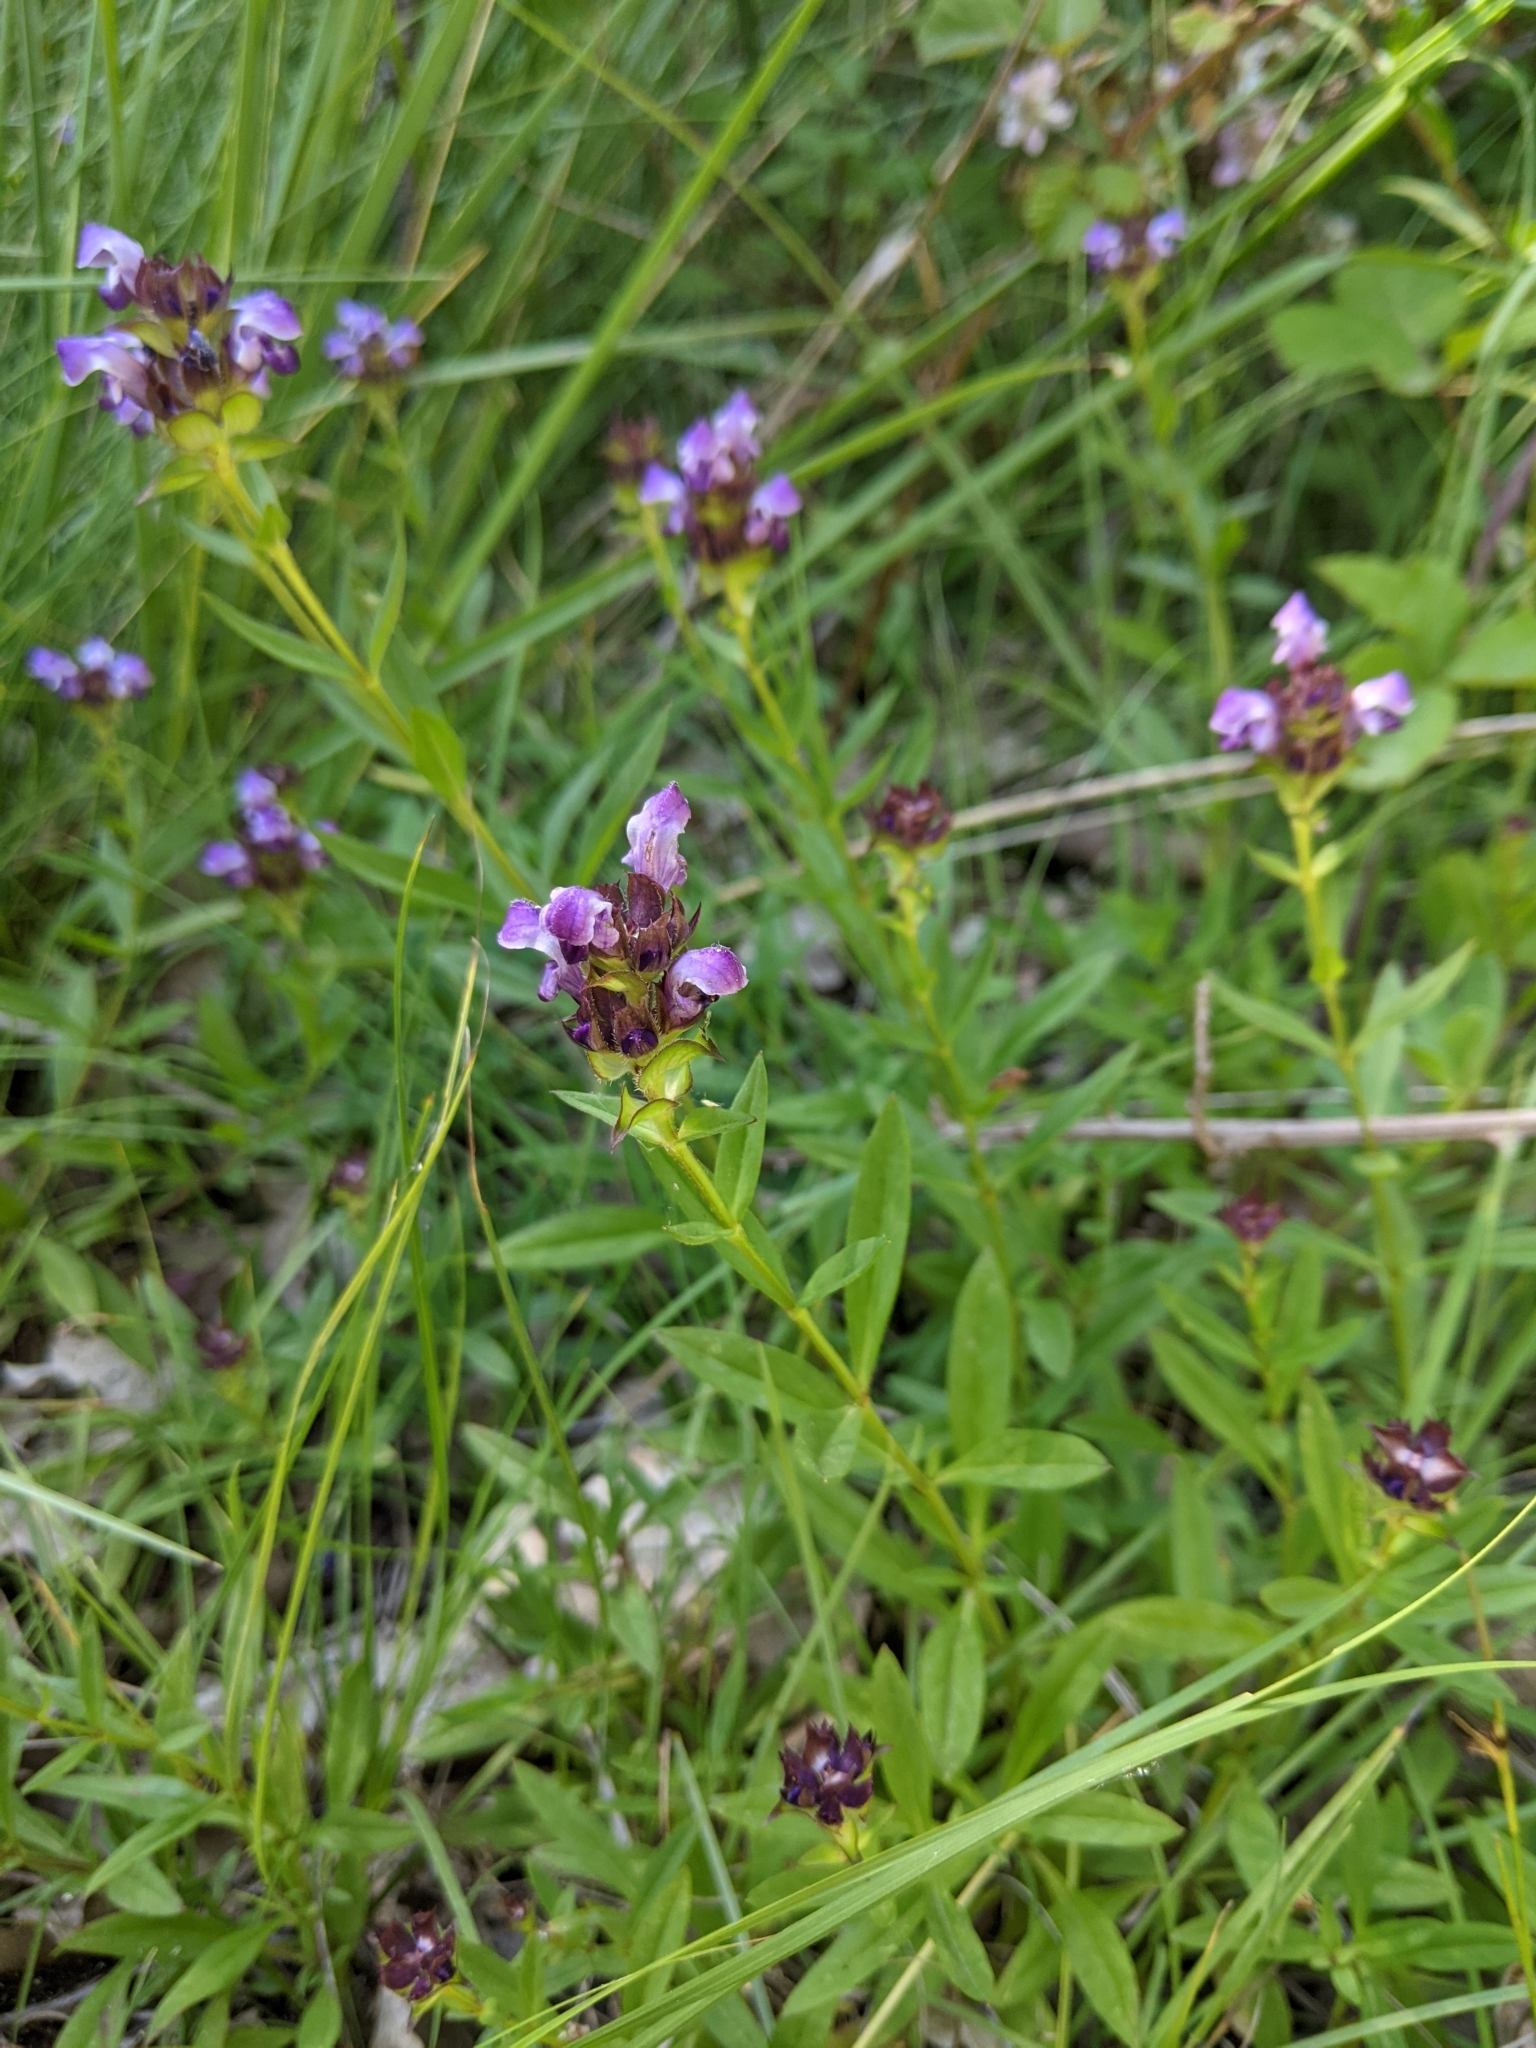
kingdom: Plantae
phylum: Tracheophyta
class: Magnoliopsida
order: Lamiales
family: Lamiaceae
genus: Prunella
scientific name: Prunella hyssopifolia
